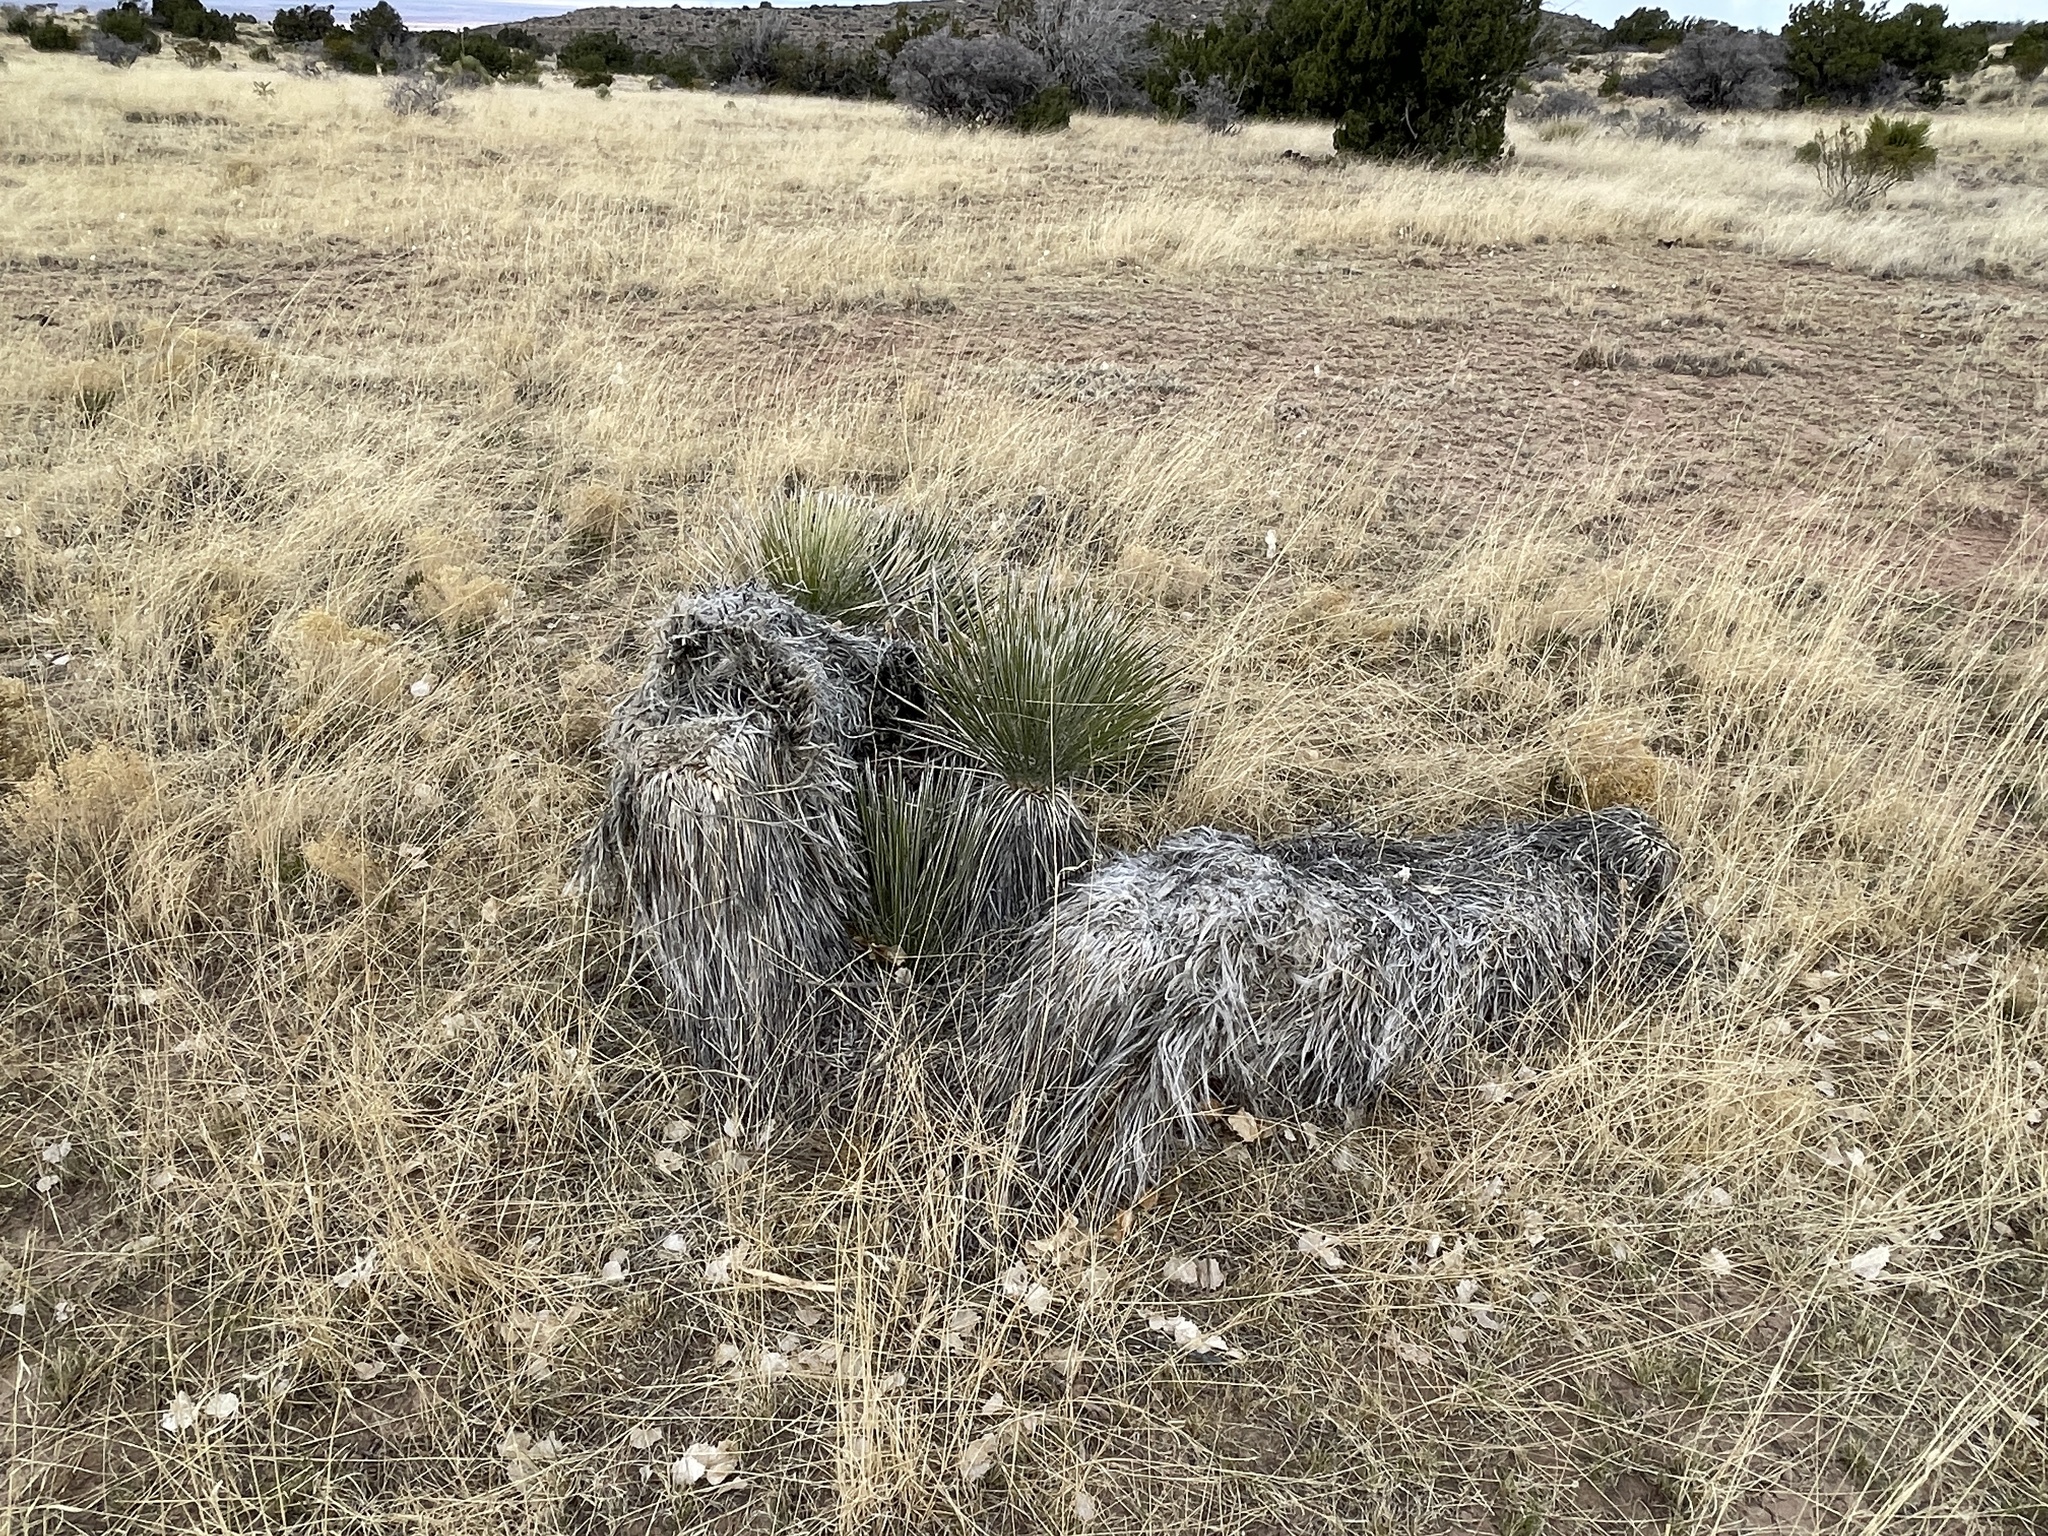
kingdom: Plantae
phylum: Tracheophyta
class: Liliopsida
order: Asparagales
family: Asparagaceae
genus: Yucca
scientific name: Yucca elata
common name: Palmella
